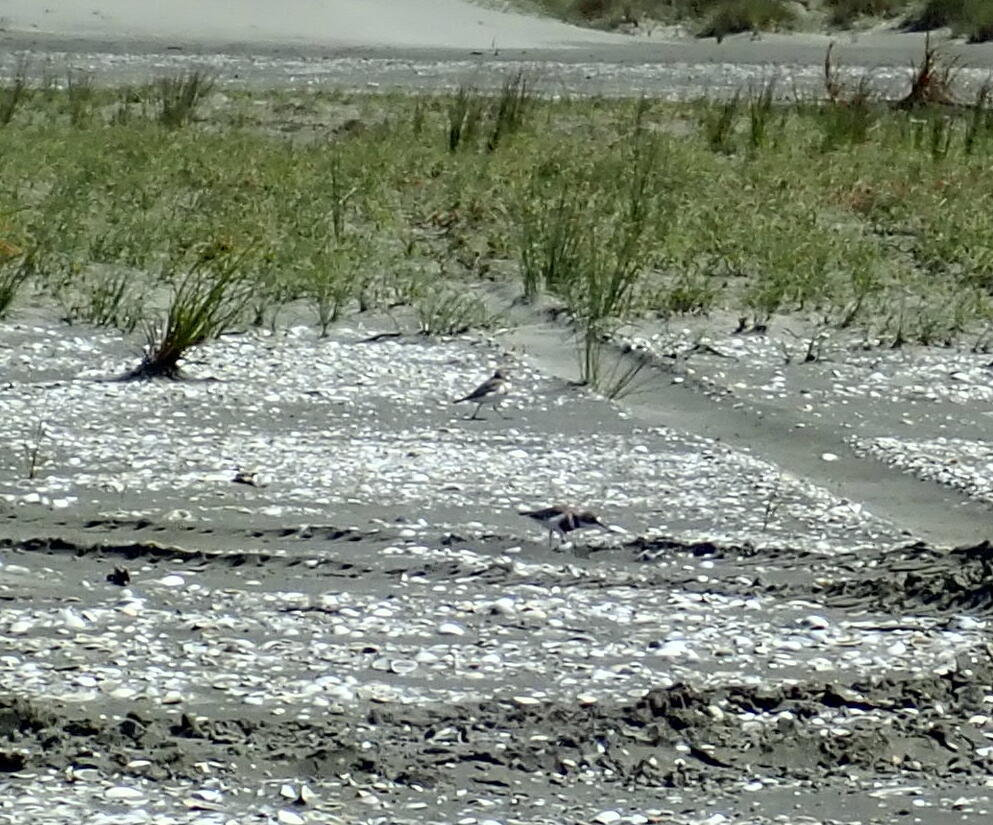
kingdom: Animalia
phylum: Chordata
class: Aves
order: Charadriiformes
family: Charadriidae
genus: Anarhynchus
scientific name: Anarhynchus
